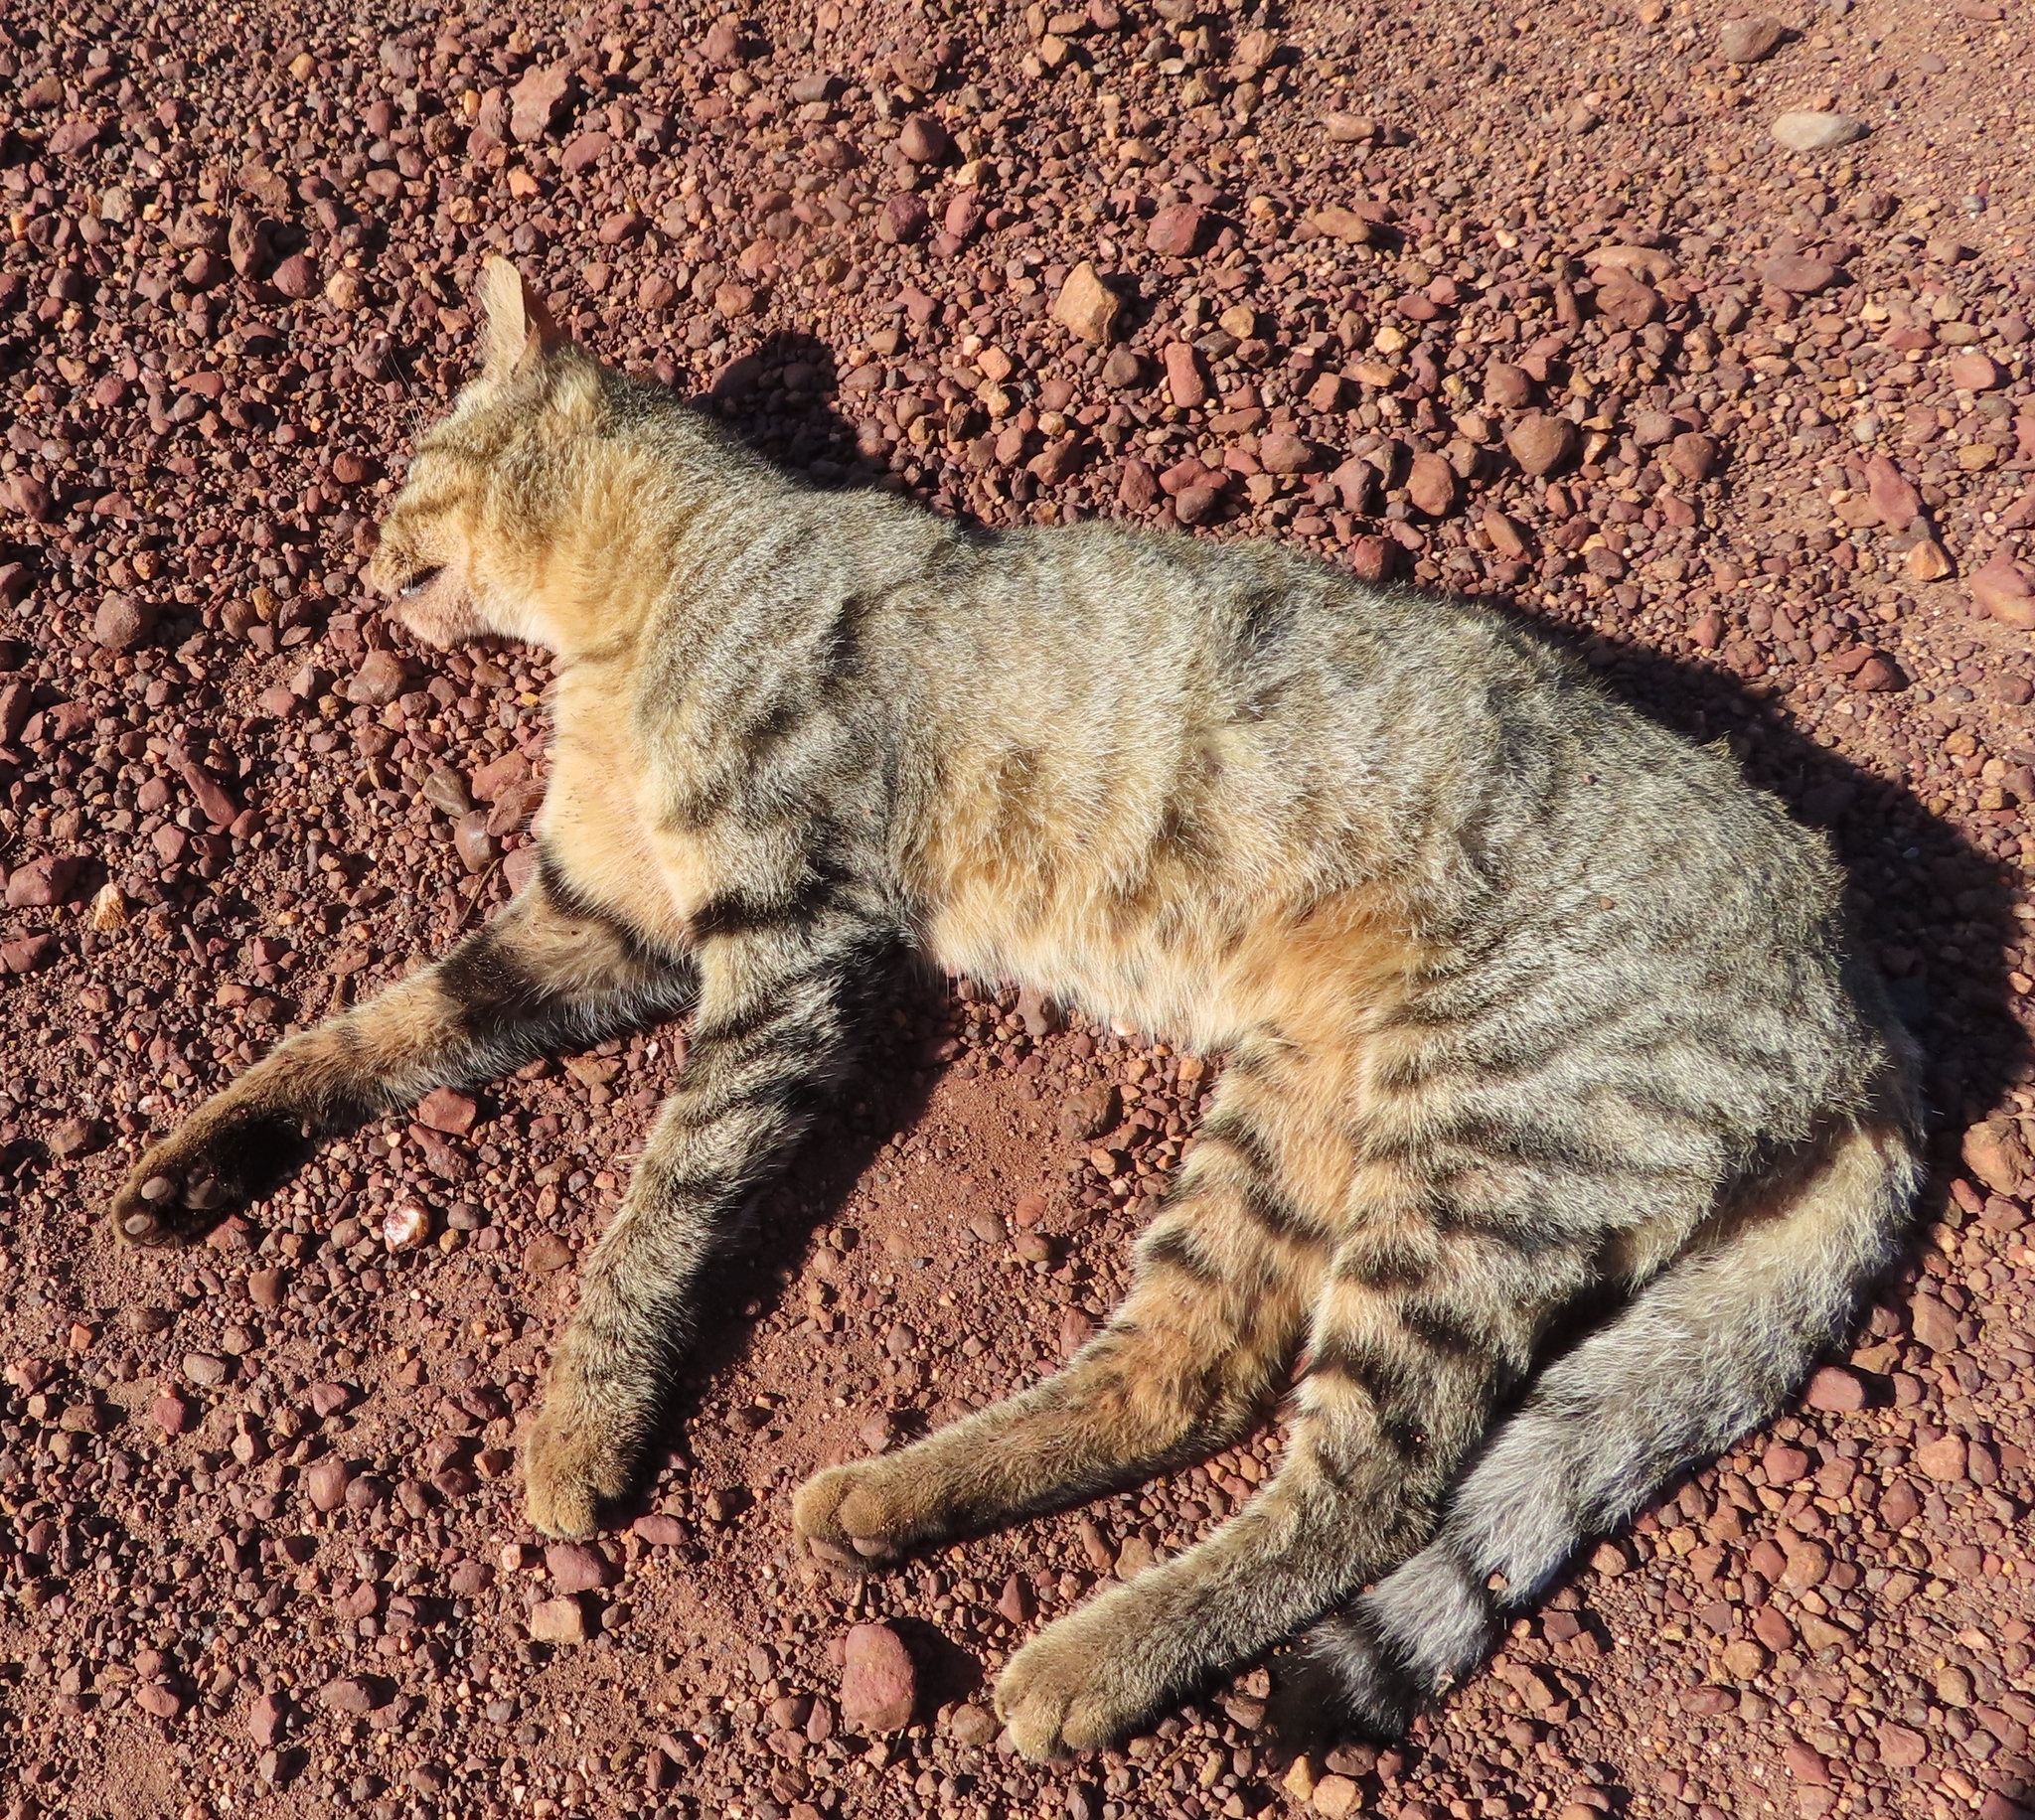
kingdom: Animalia
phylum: Chordata
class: Mammalia
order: Carnivora
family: Felidae
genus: Felis
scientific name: Felis silvestris
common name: Wildcat
